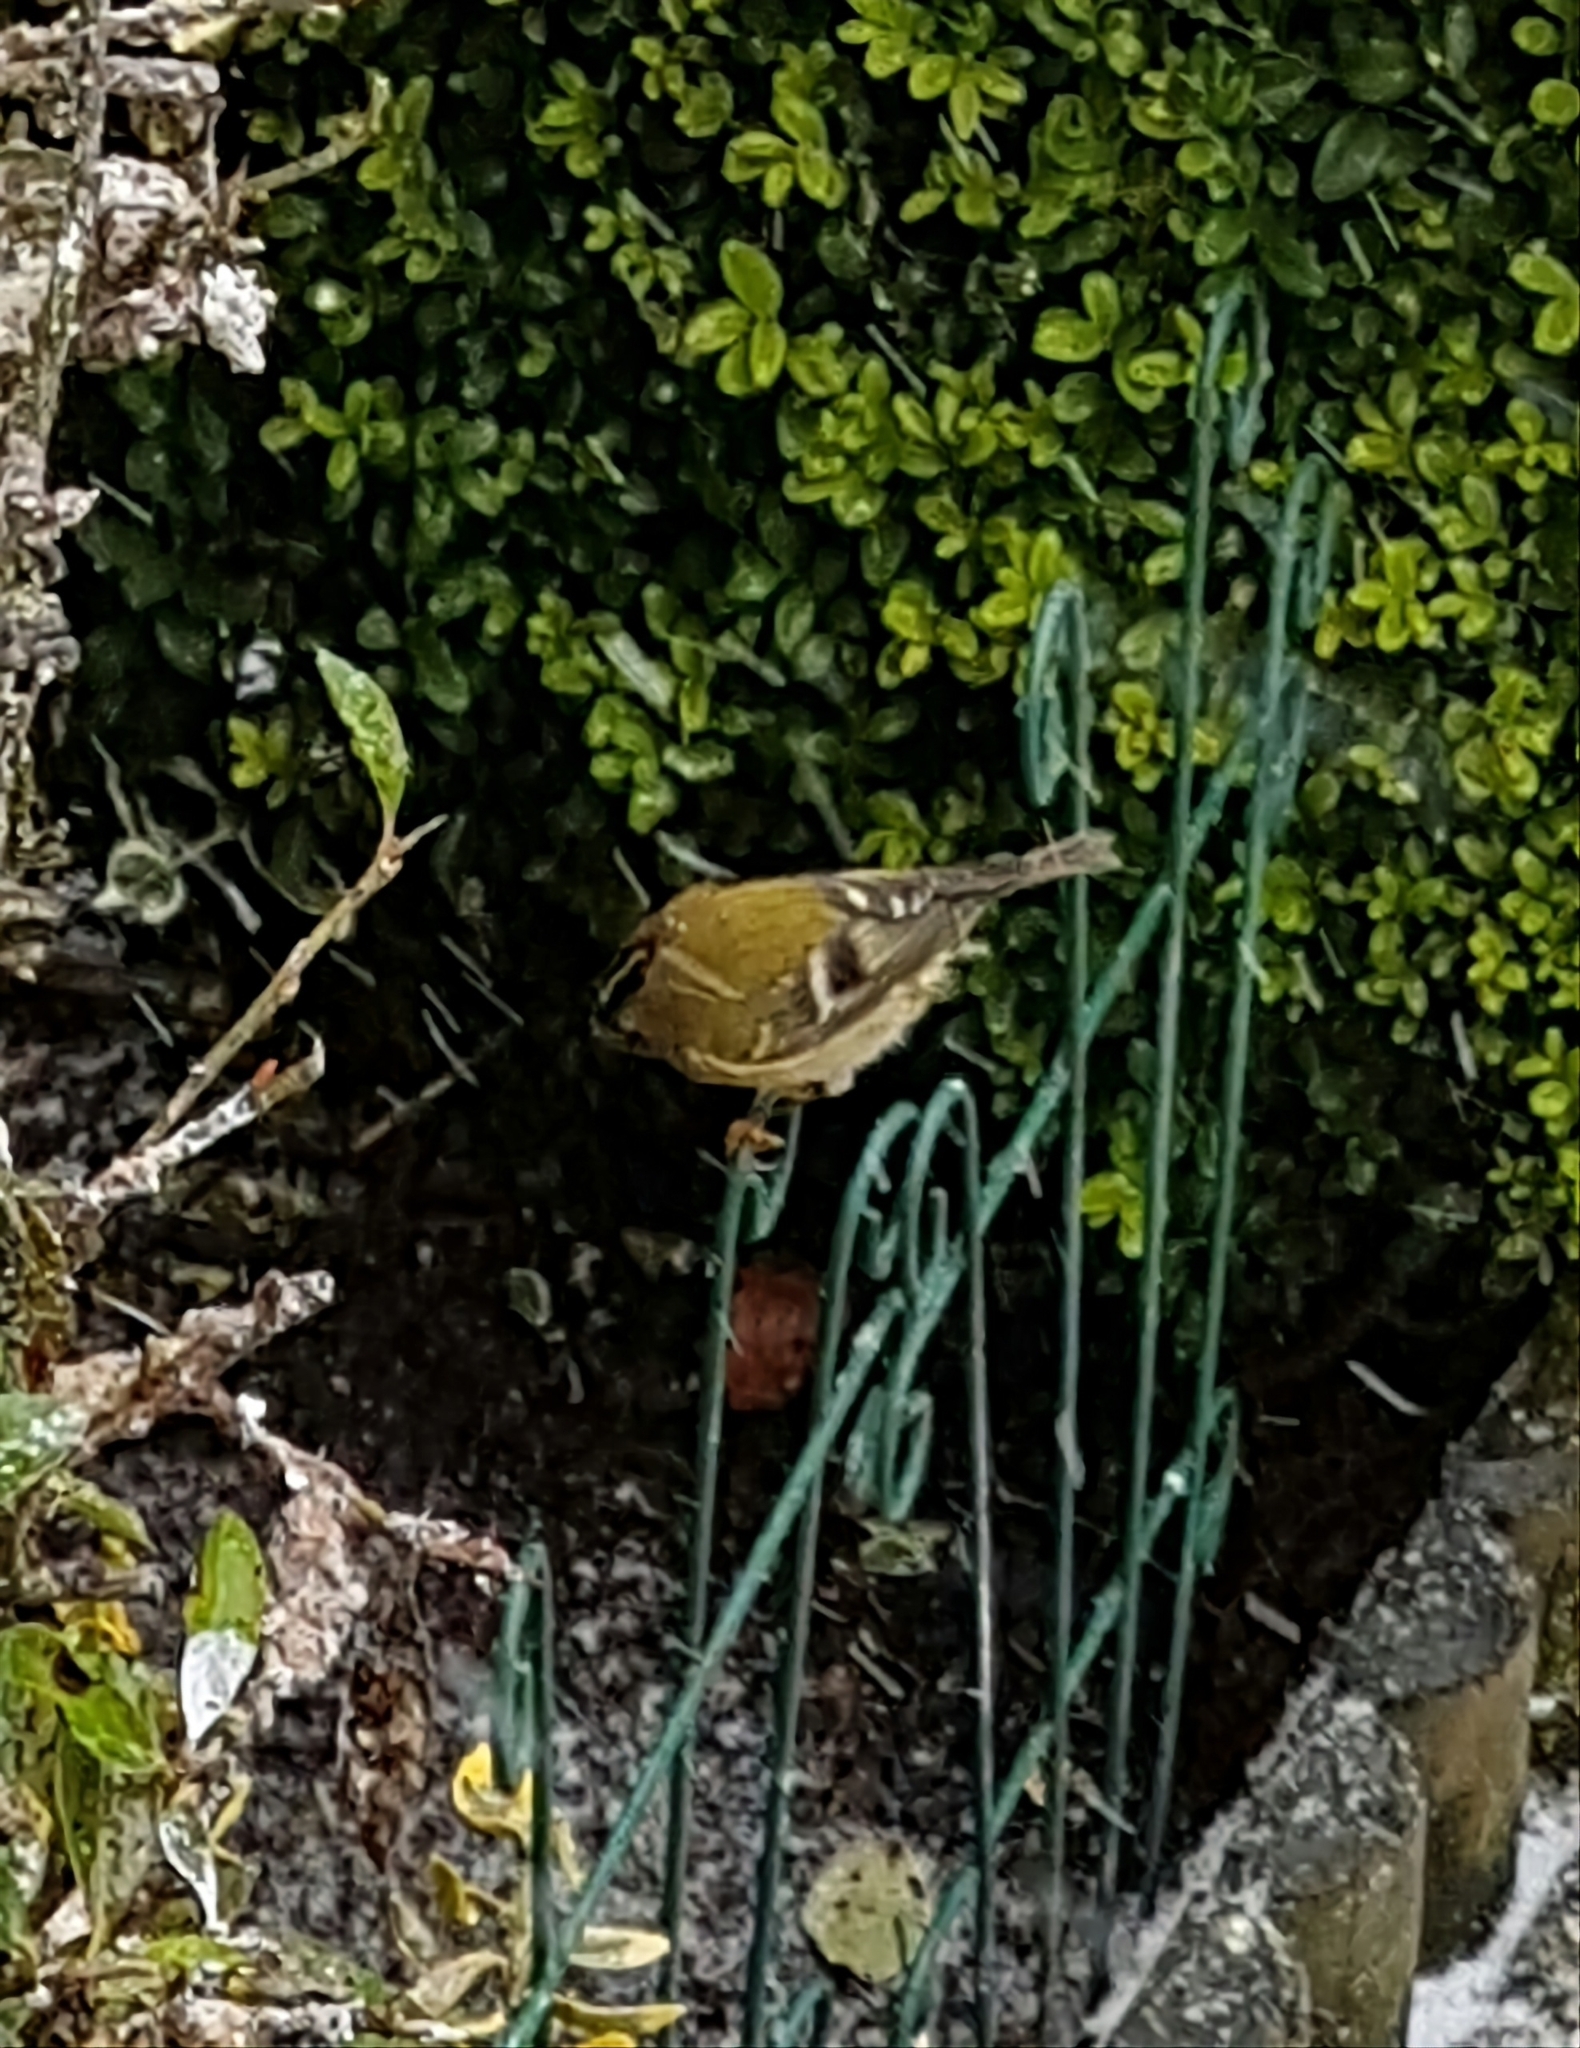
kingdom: Animalia
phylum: Chordata
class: Aves
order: Passeriformes
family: Regulidae
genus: Regulus
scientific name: Regulus regulus
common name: Goldcrest
